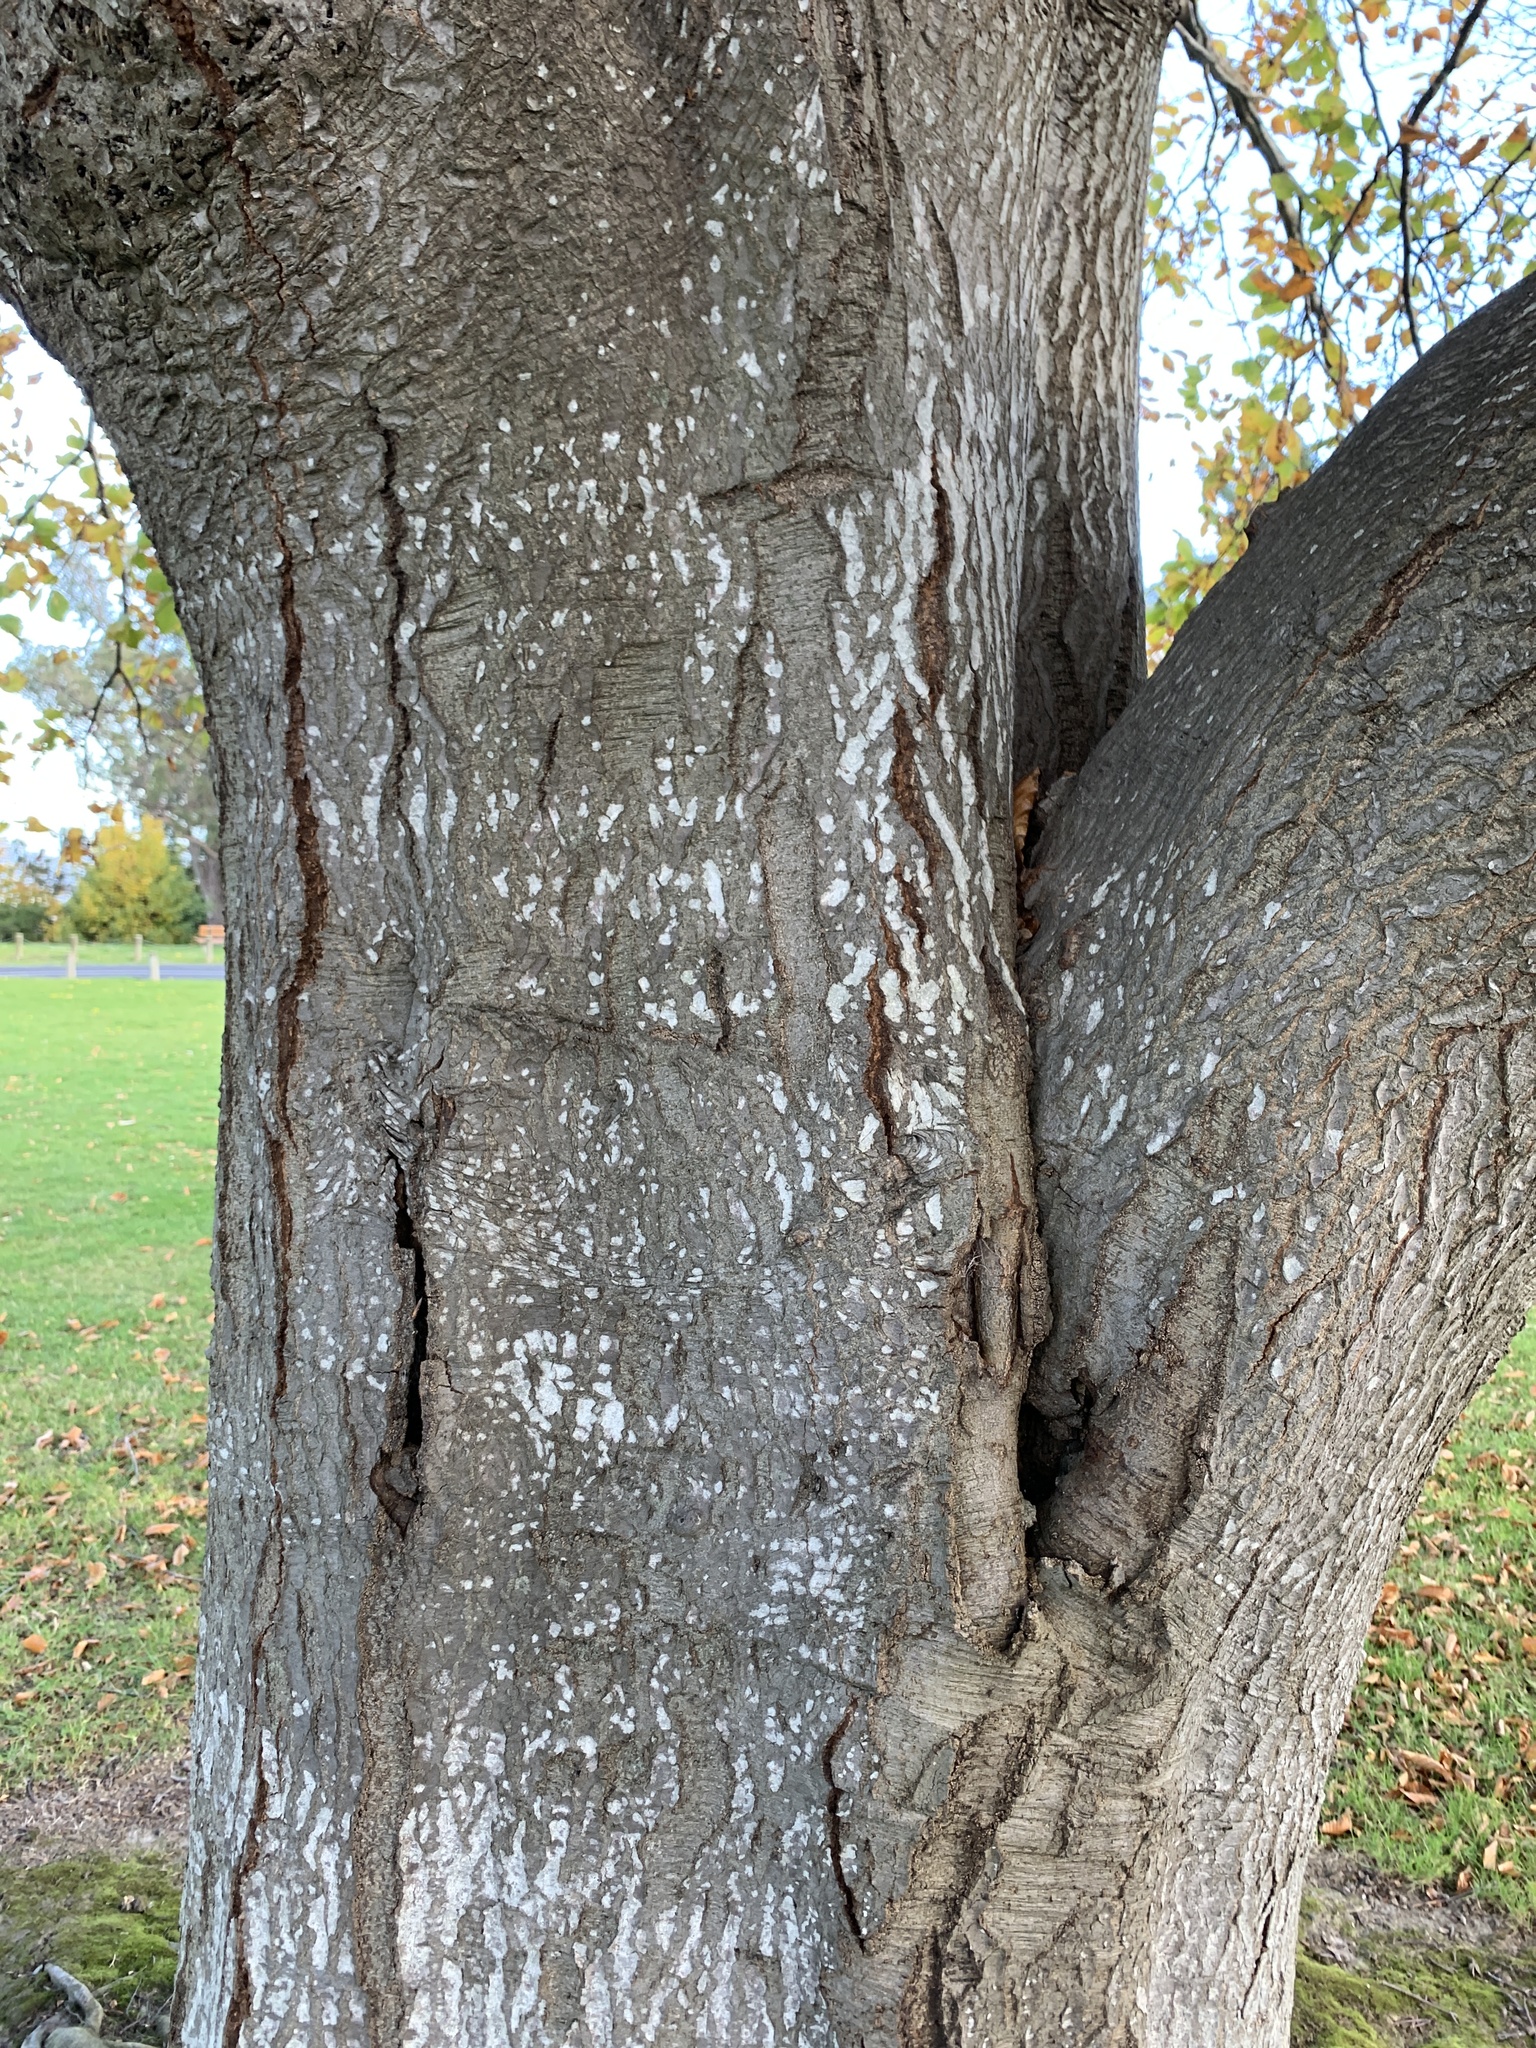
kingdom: Plantae
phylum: Tracheophyta
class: Magnoliopsida
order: Fagales
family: Fagaceae
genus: Fagus
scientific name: Fagus sylvatica
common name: Beech
